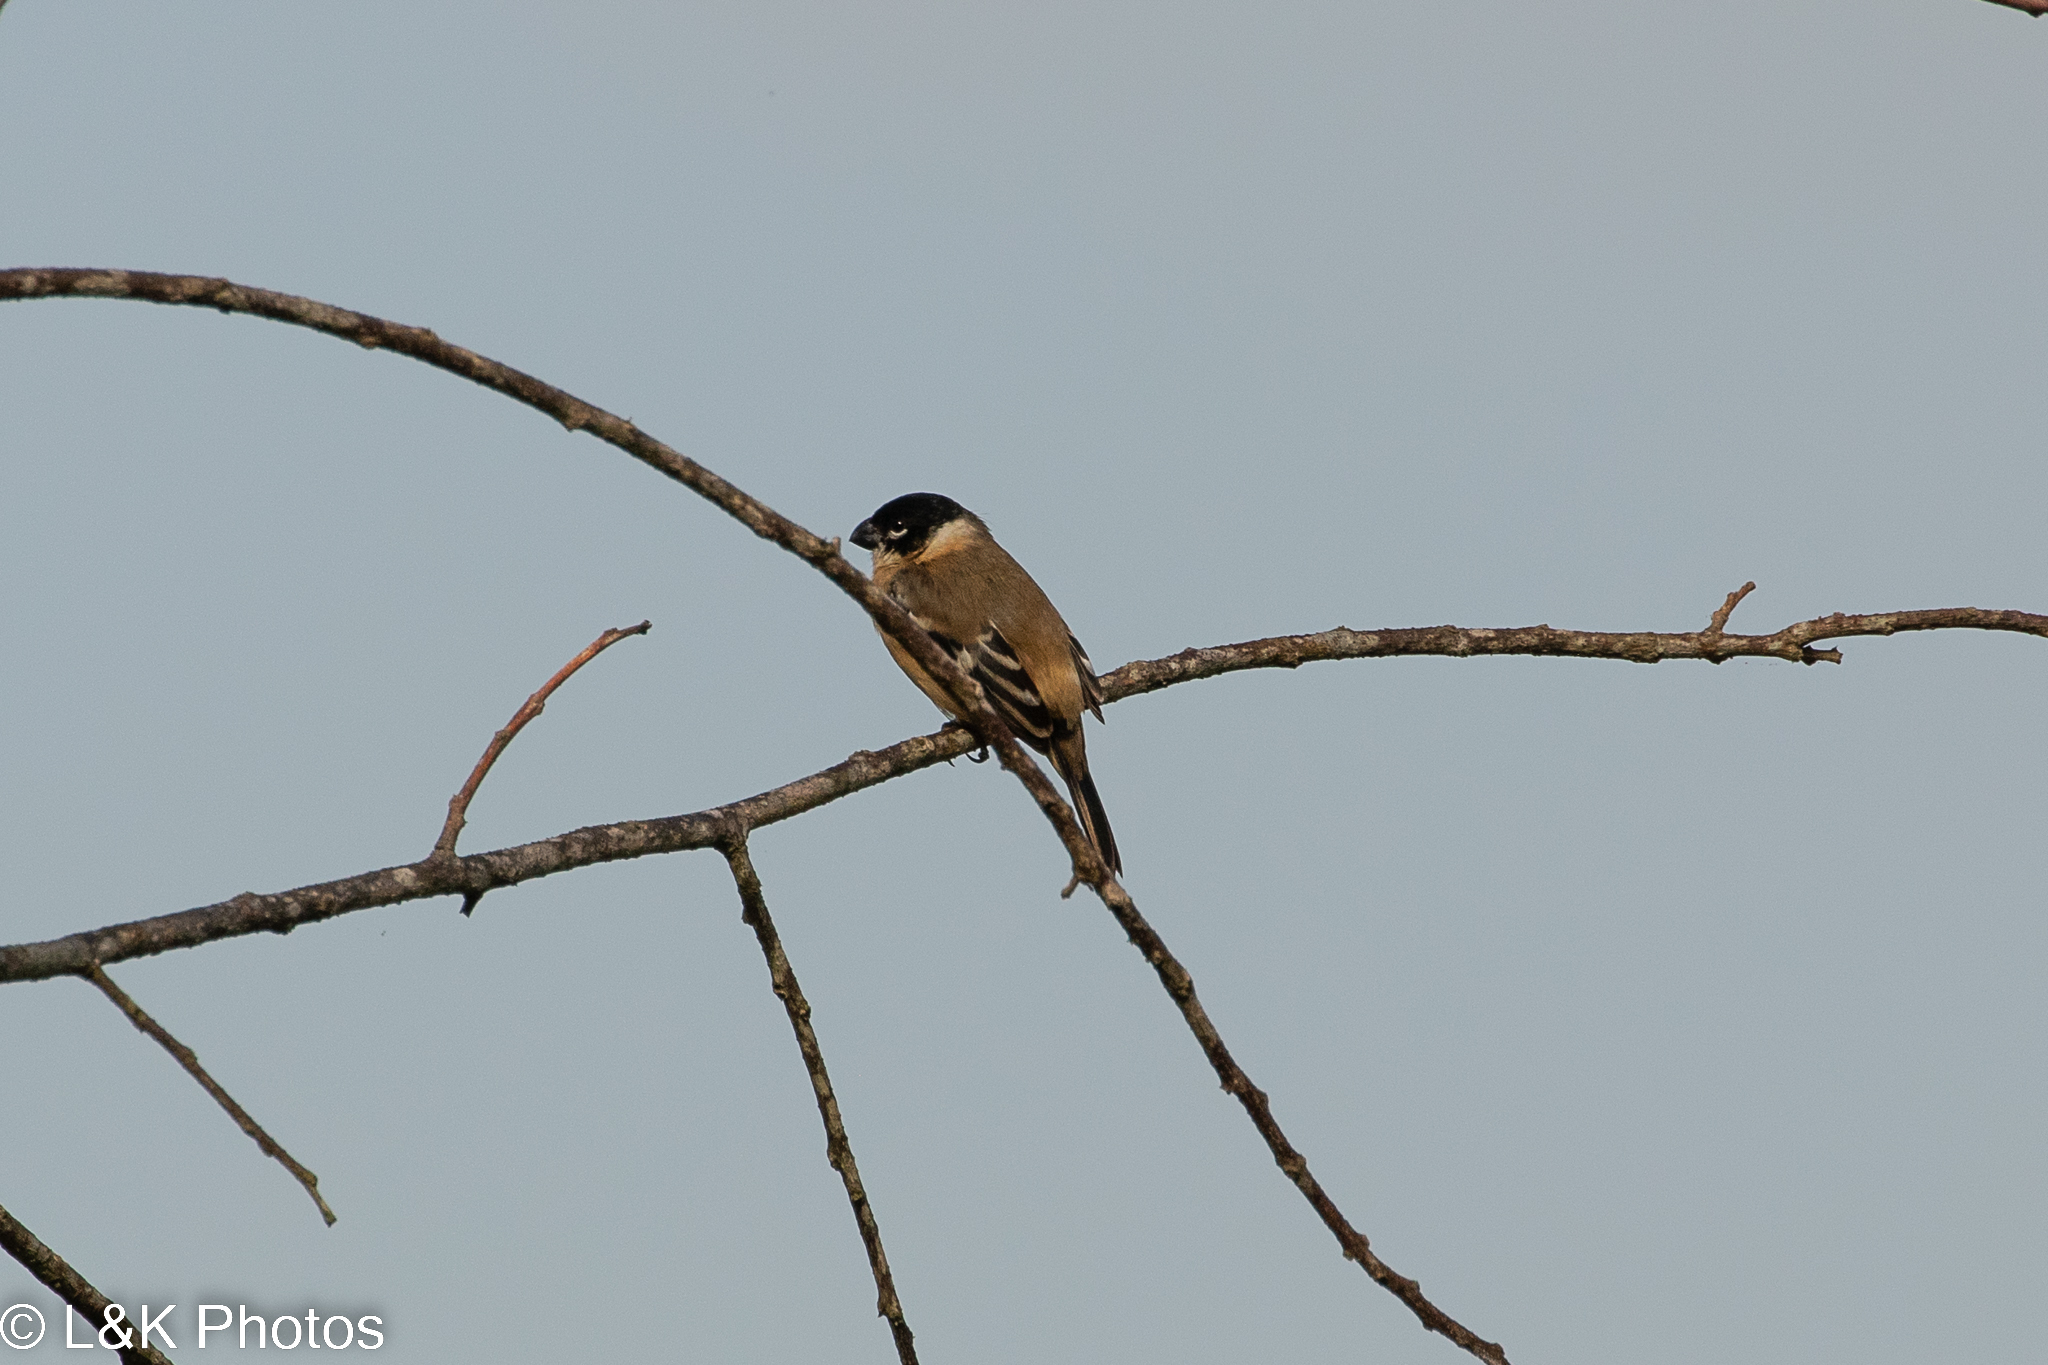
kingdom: Animalia
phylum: Chordata
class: Aves
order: Passeriformes
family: Thraupidae
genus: Sporophila
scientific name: Sporophila morelleti
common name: Morelet's seedeater
